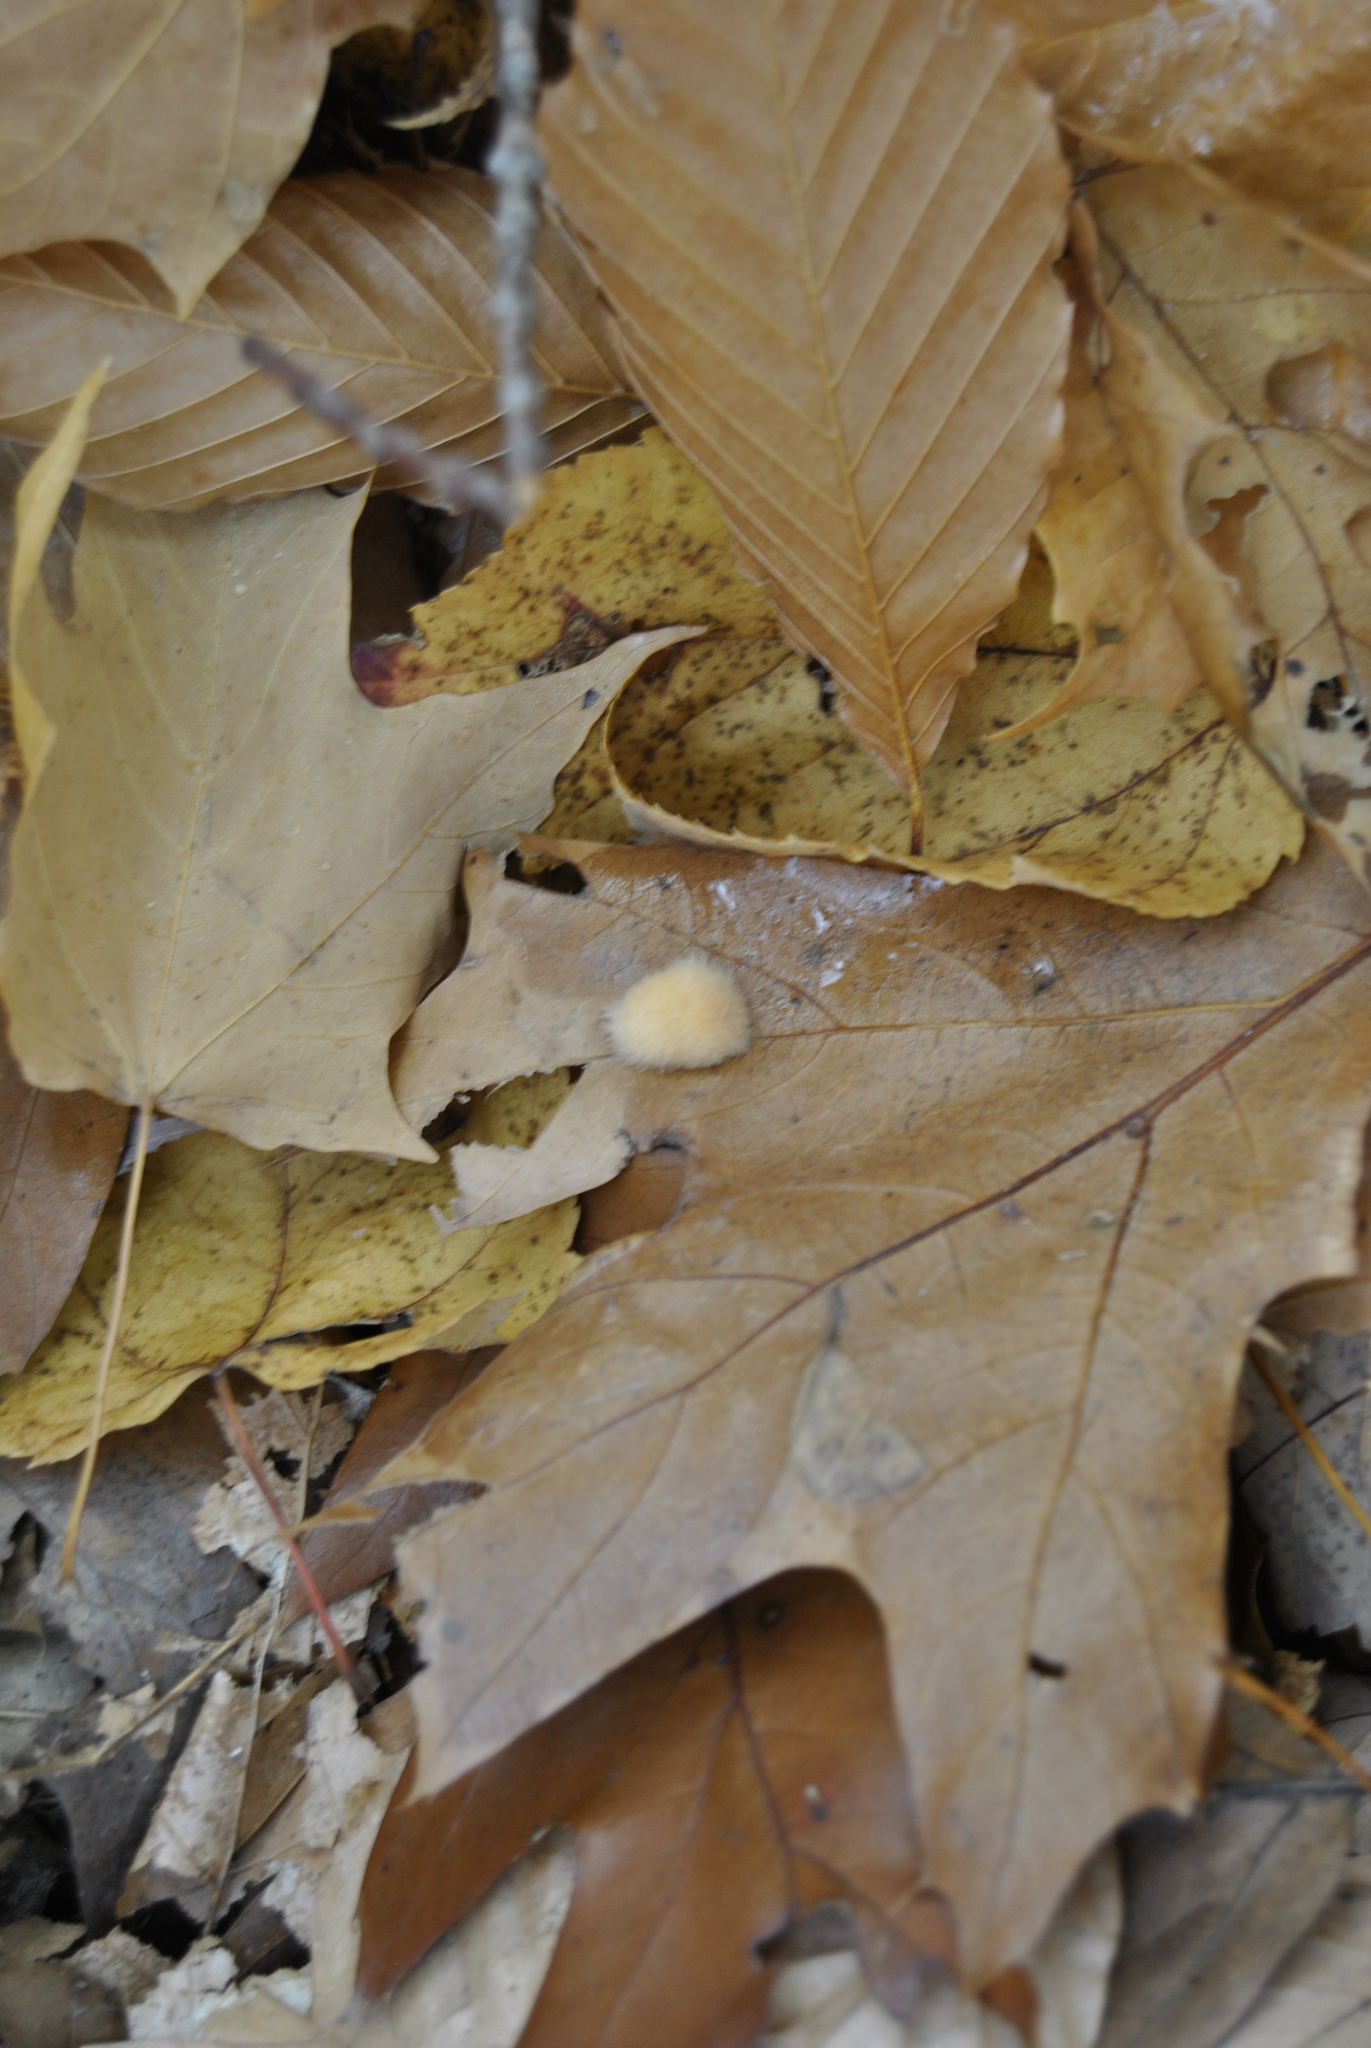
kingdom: Animalia
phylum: Arthropoda
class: Insecta
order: Hymenoptera
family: Cynipidae
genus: Callirhytis
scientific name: Callirhytis
